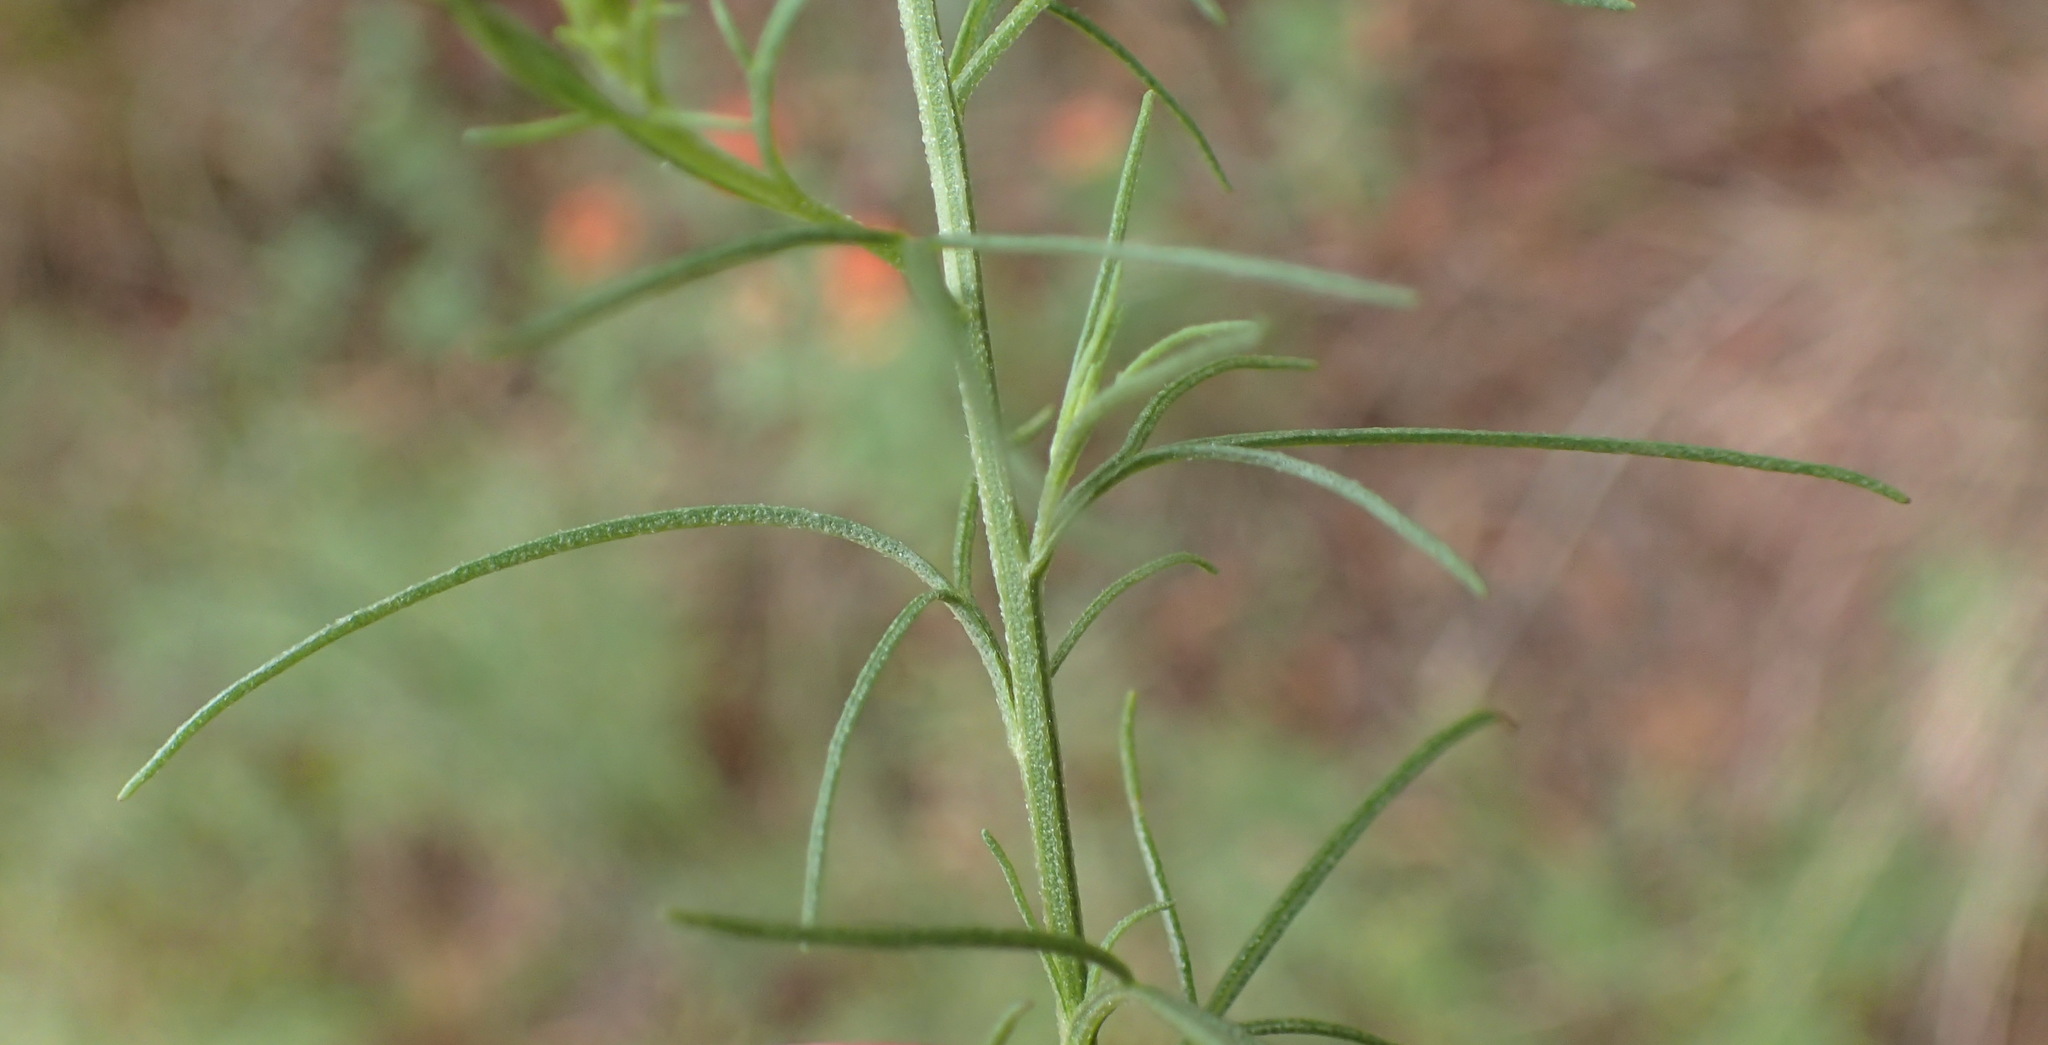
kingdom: Plantae
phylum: Tracheophyta
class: Magnoliopsida
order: Asterales
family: Asteraceae
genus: Schkuhria
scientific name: Schkuhria pinnata
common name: Dwarf marigold
